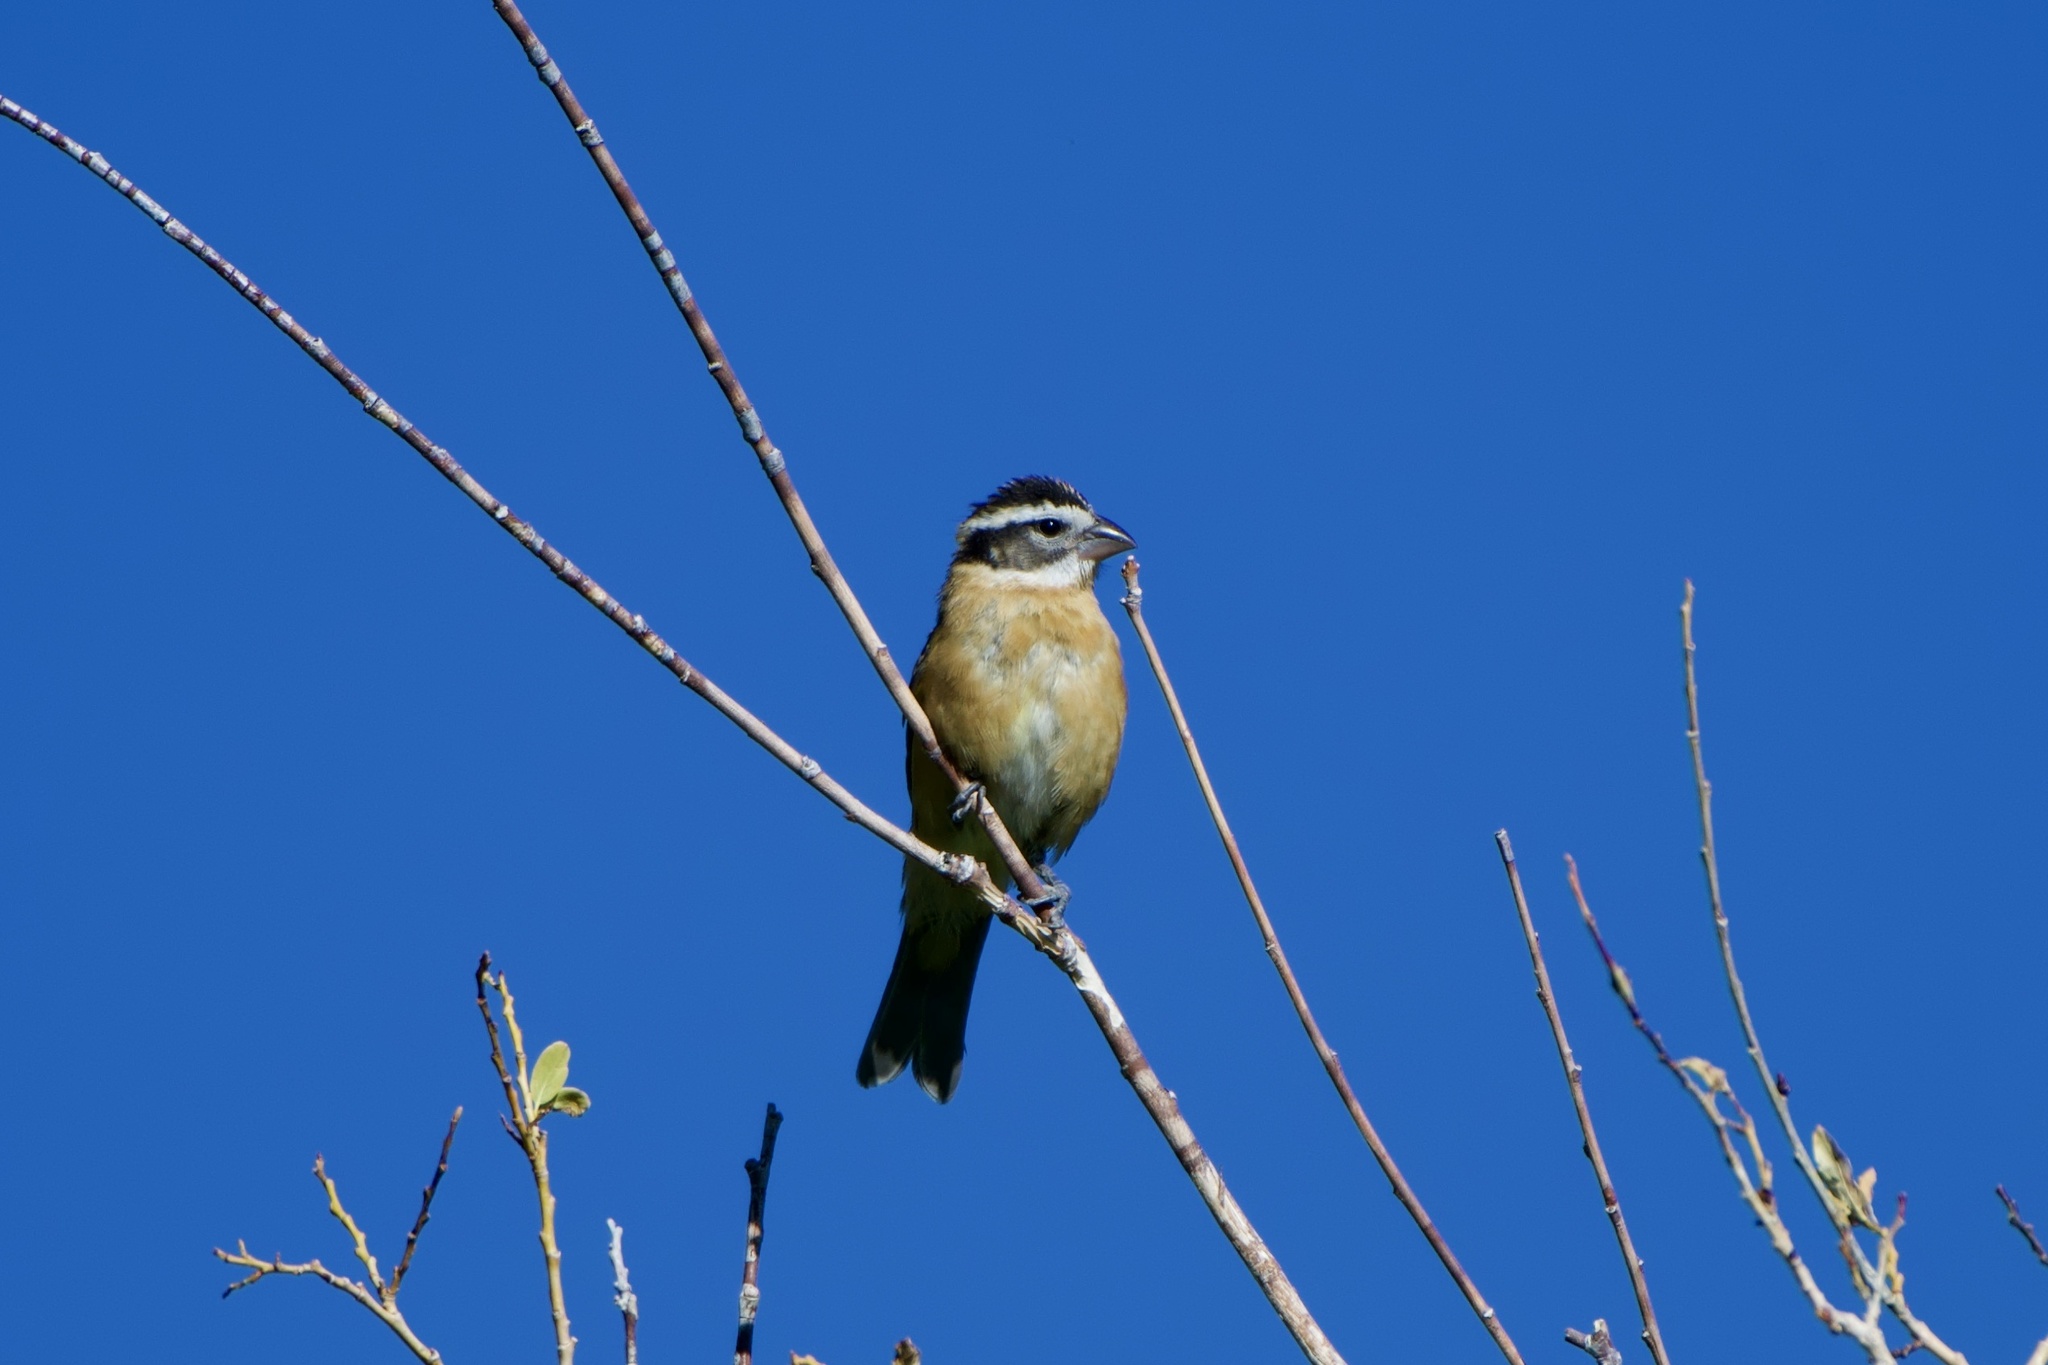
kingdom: Animalia
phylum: Chordata
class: Aves
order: Passeriformes
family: Cardinalidae
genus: Pheucticus
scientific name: Pheucticus melanocephalus
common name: Black-headed grosbeak
